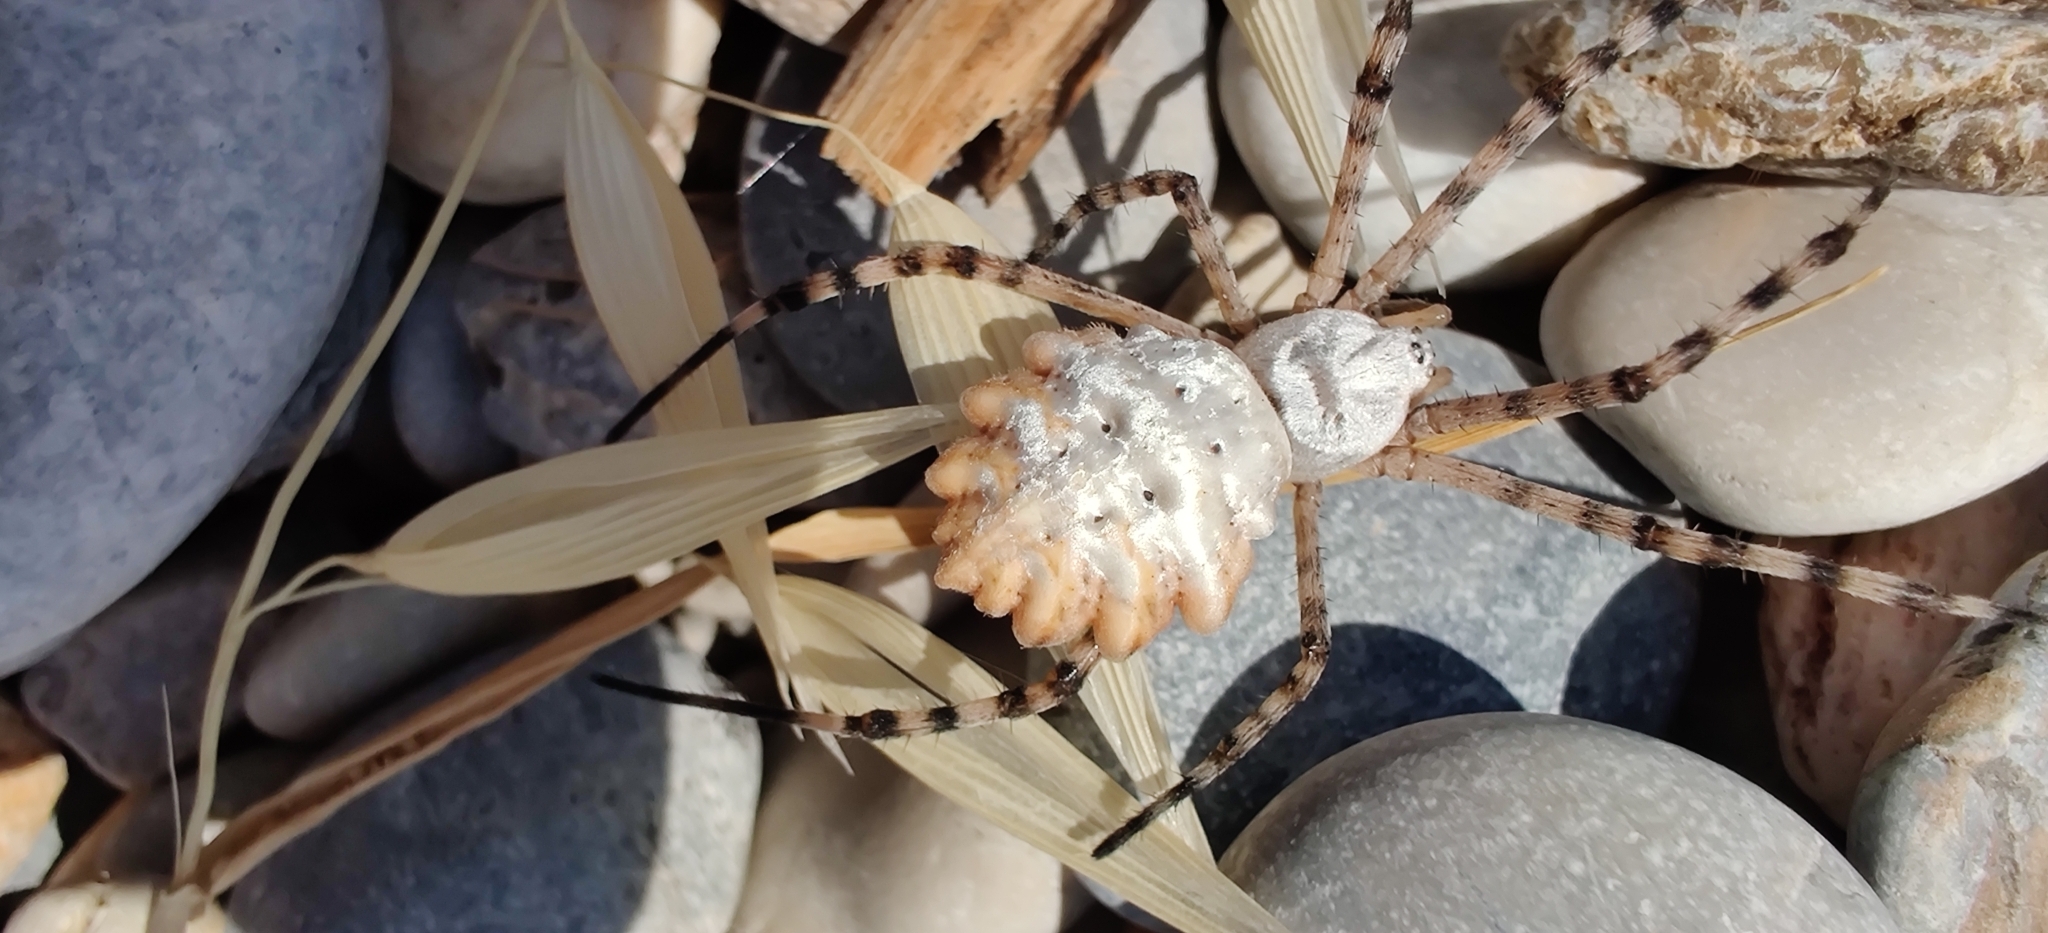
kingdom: Animalia
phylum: Arthropoda
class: Arachnida
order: Araneae
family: Araneidae
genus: Argiope
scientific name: Argiope lobata
